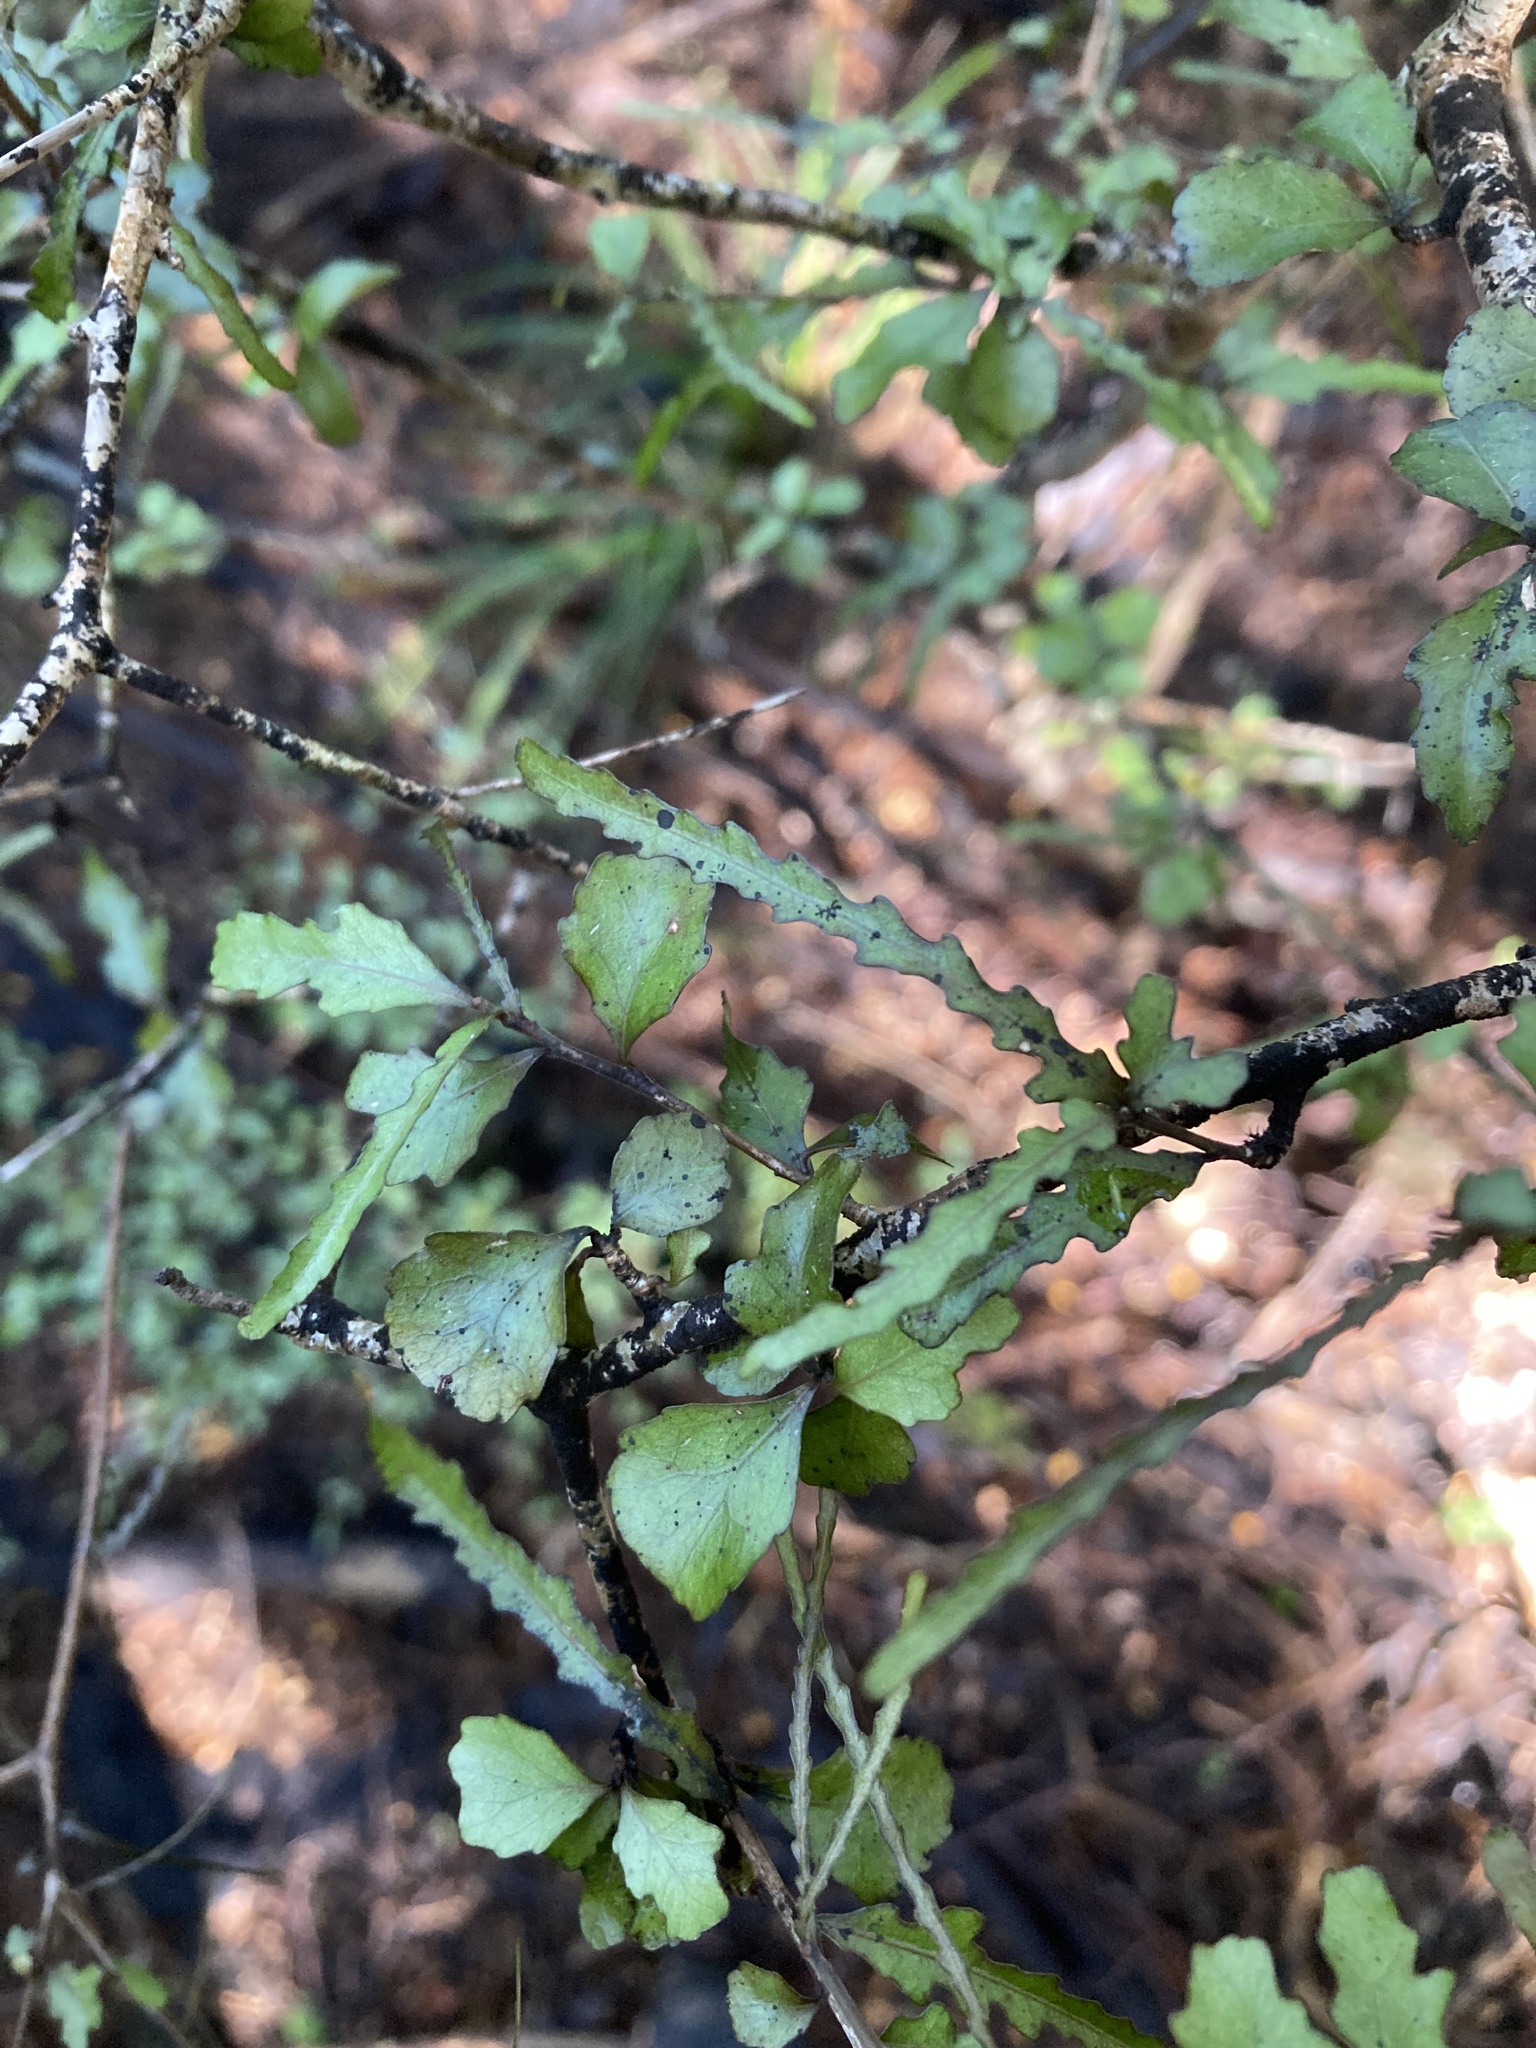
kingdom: Plantae
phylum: Tracheophyta
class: Magnoliopsida
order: Oxalidales
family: Elaeocarpaceae
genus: Elaeocarpus
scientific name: Elaeocarpus hookerianus
